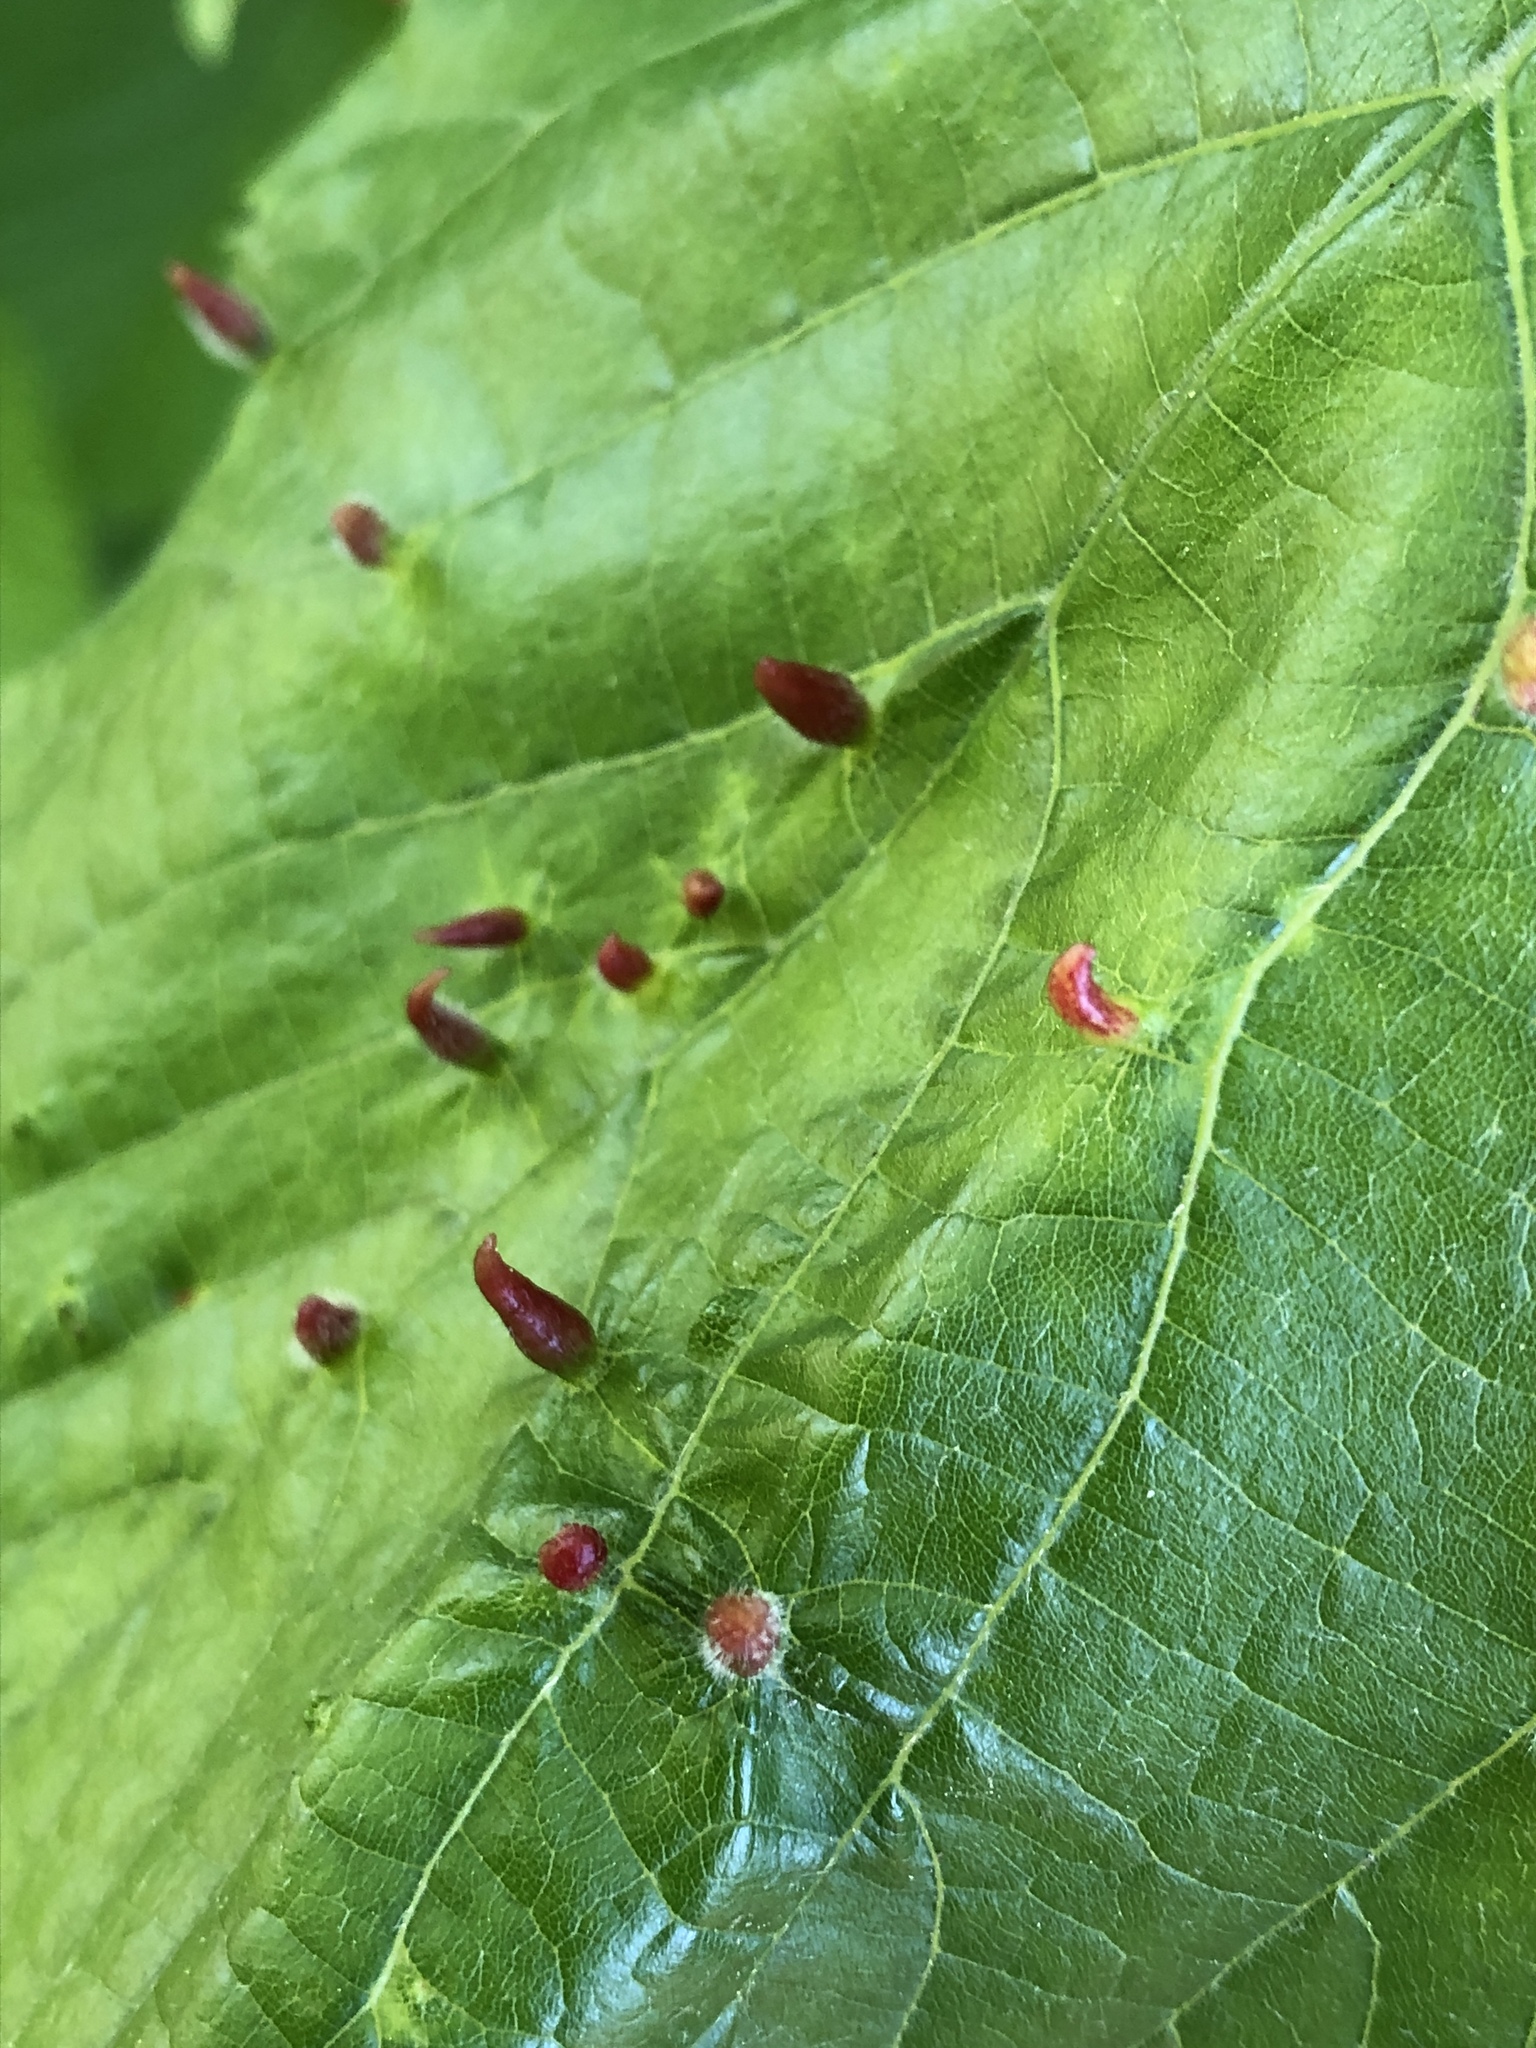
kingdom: Animalia
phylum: Arthropoda
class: Arachnida
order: Trombidiformes
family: Eriophyidae
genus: Eriophyes
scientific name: Eriophyes tiliae
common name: Red nail gall mite
